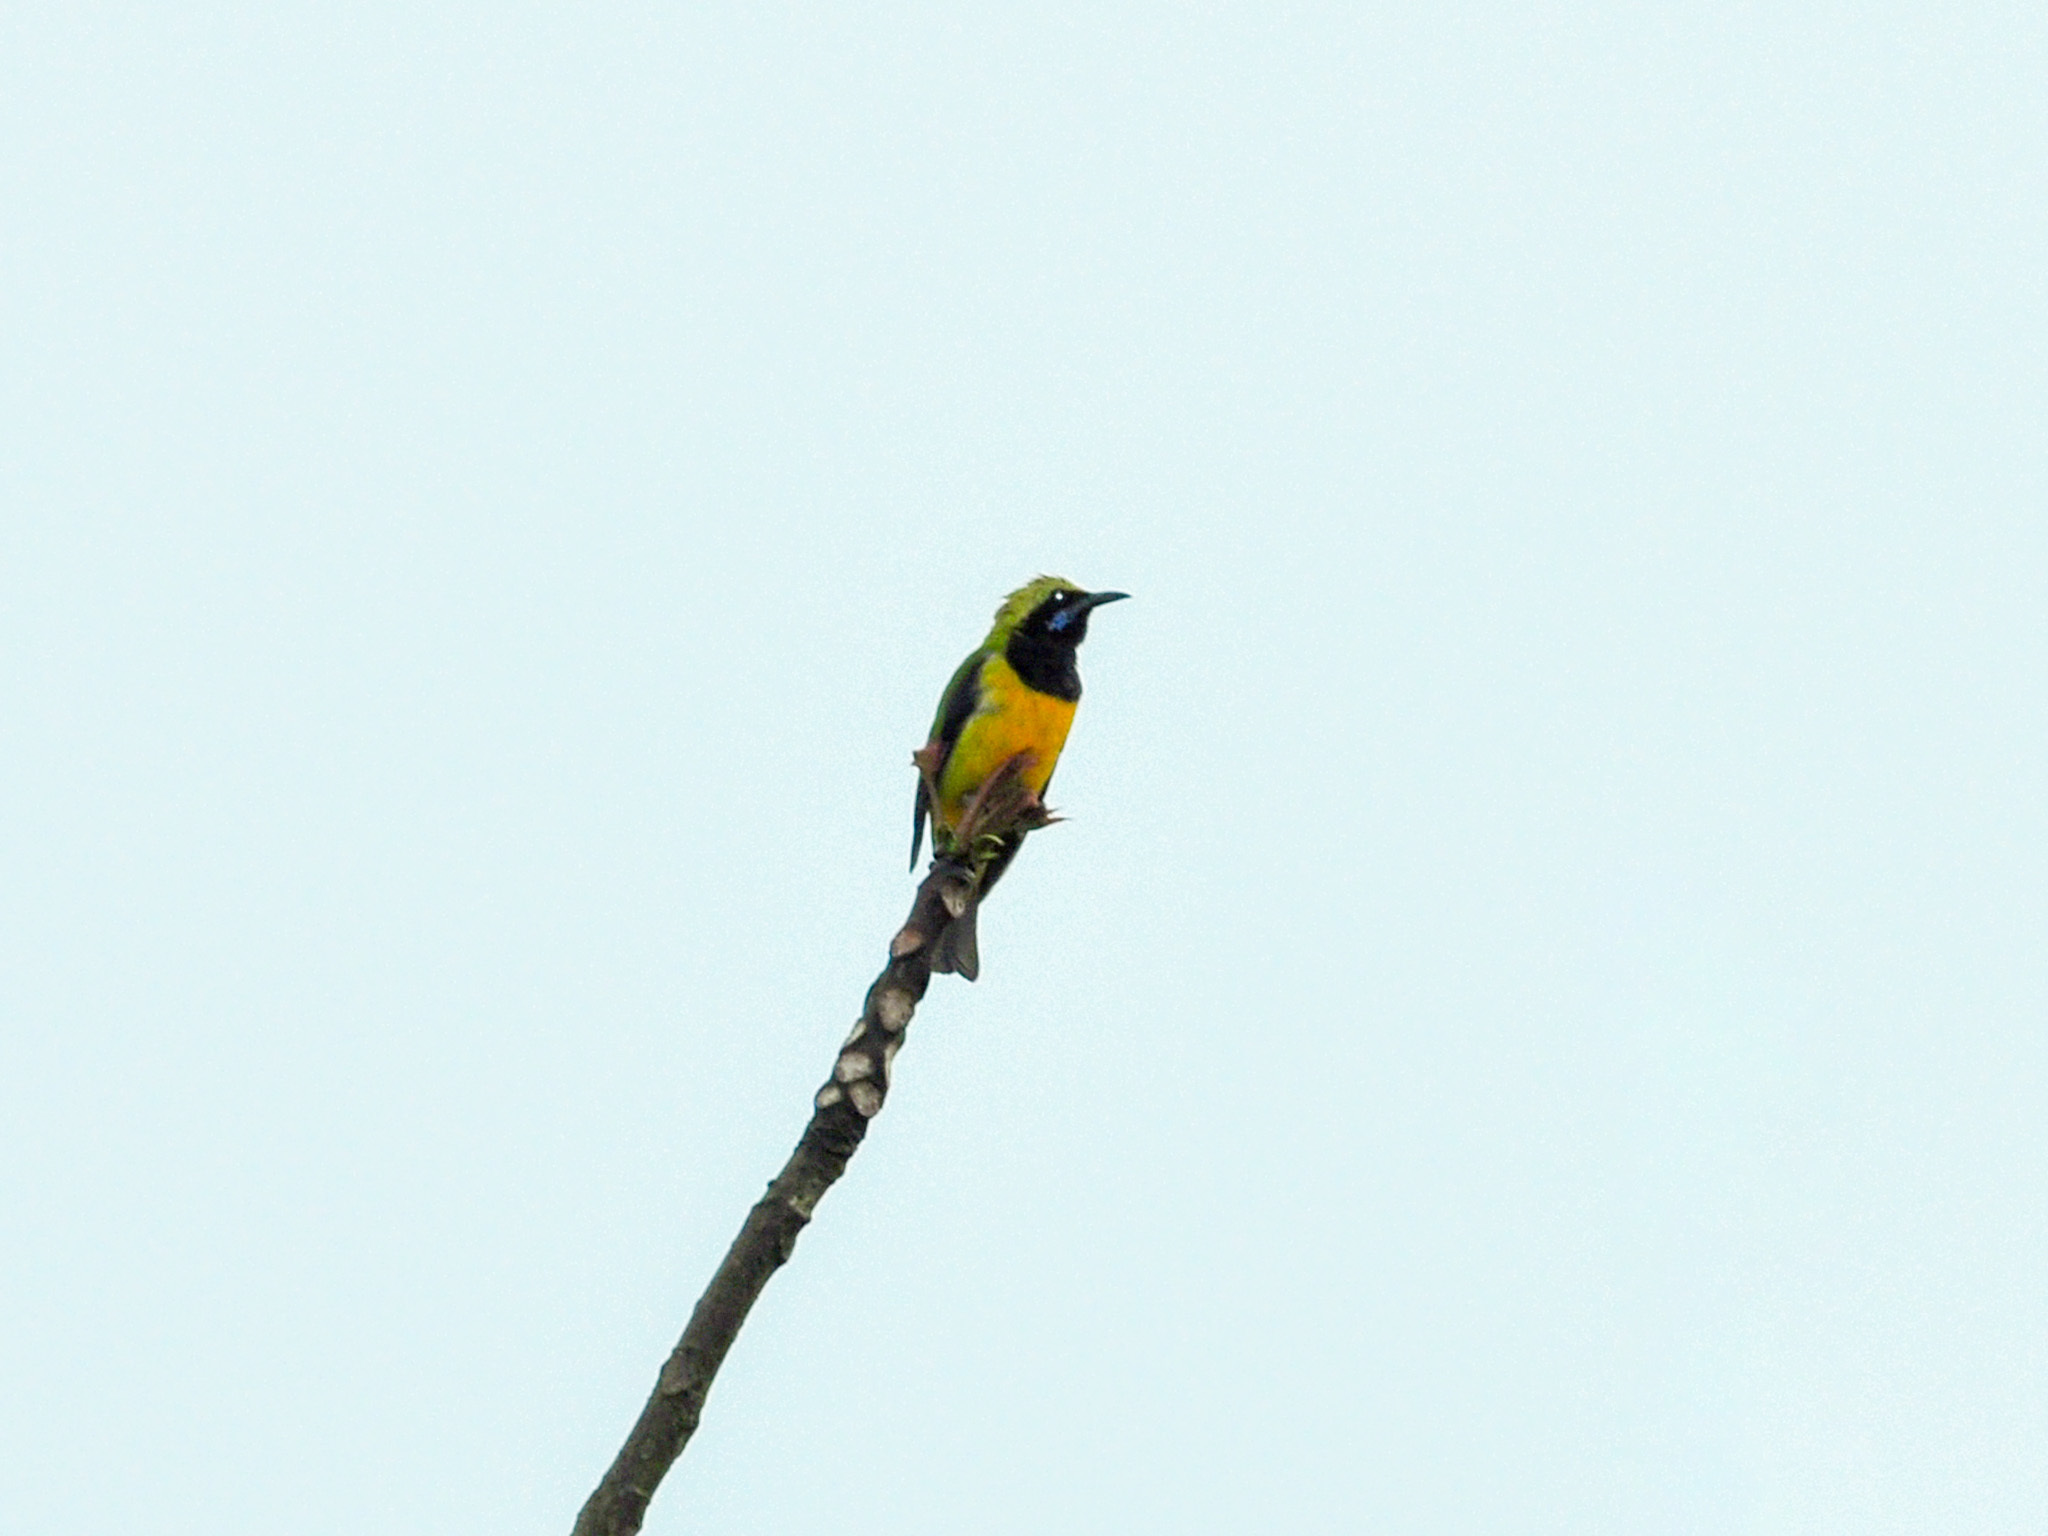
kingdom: Animalia
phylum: Chordata
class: Aves
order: Passeriformes
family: Chloropseidae
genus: Chloropsis
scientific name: Chloropsis hardwickii
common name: Orange-bellied leafbird
